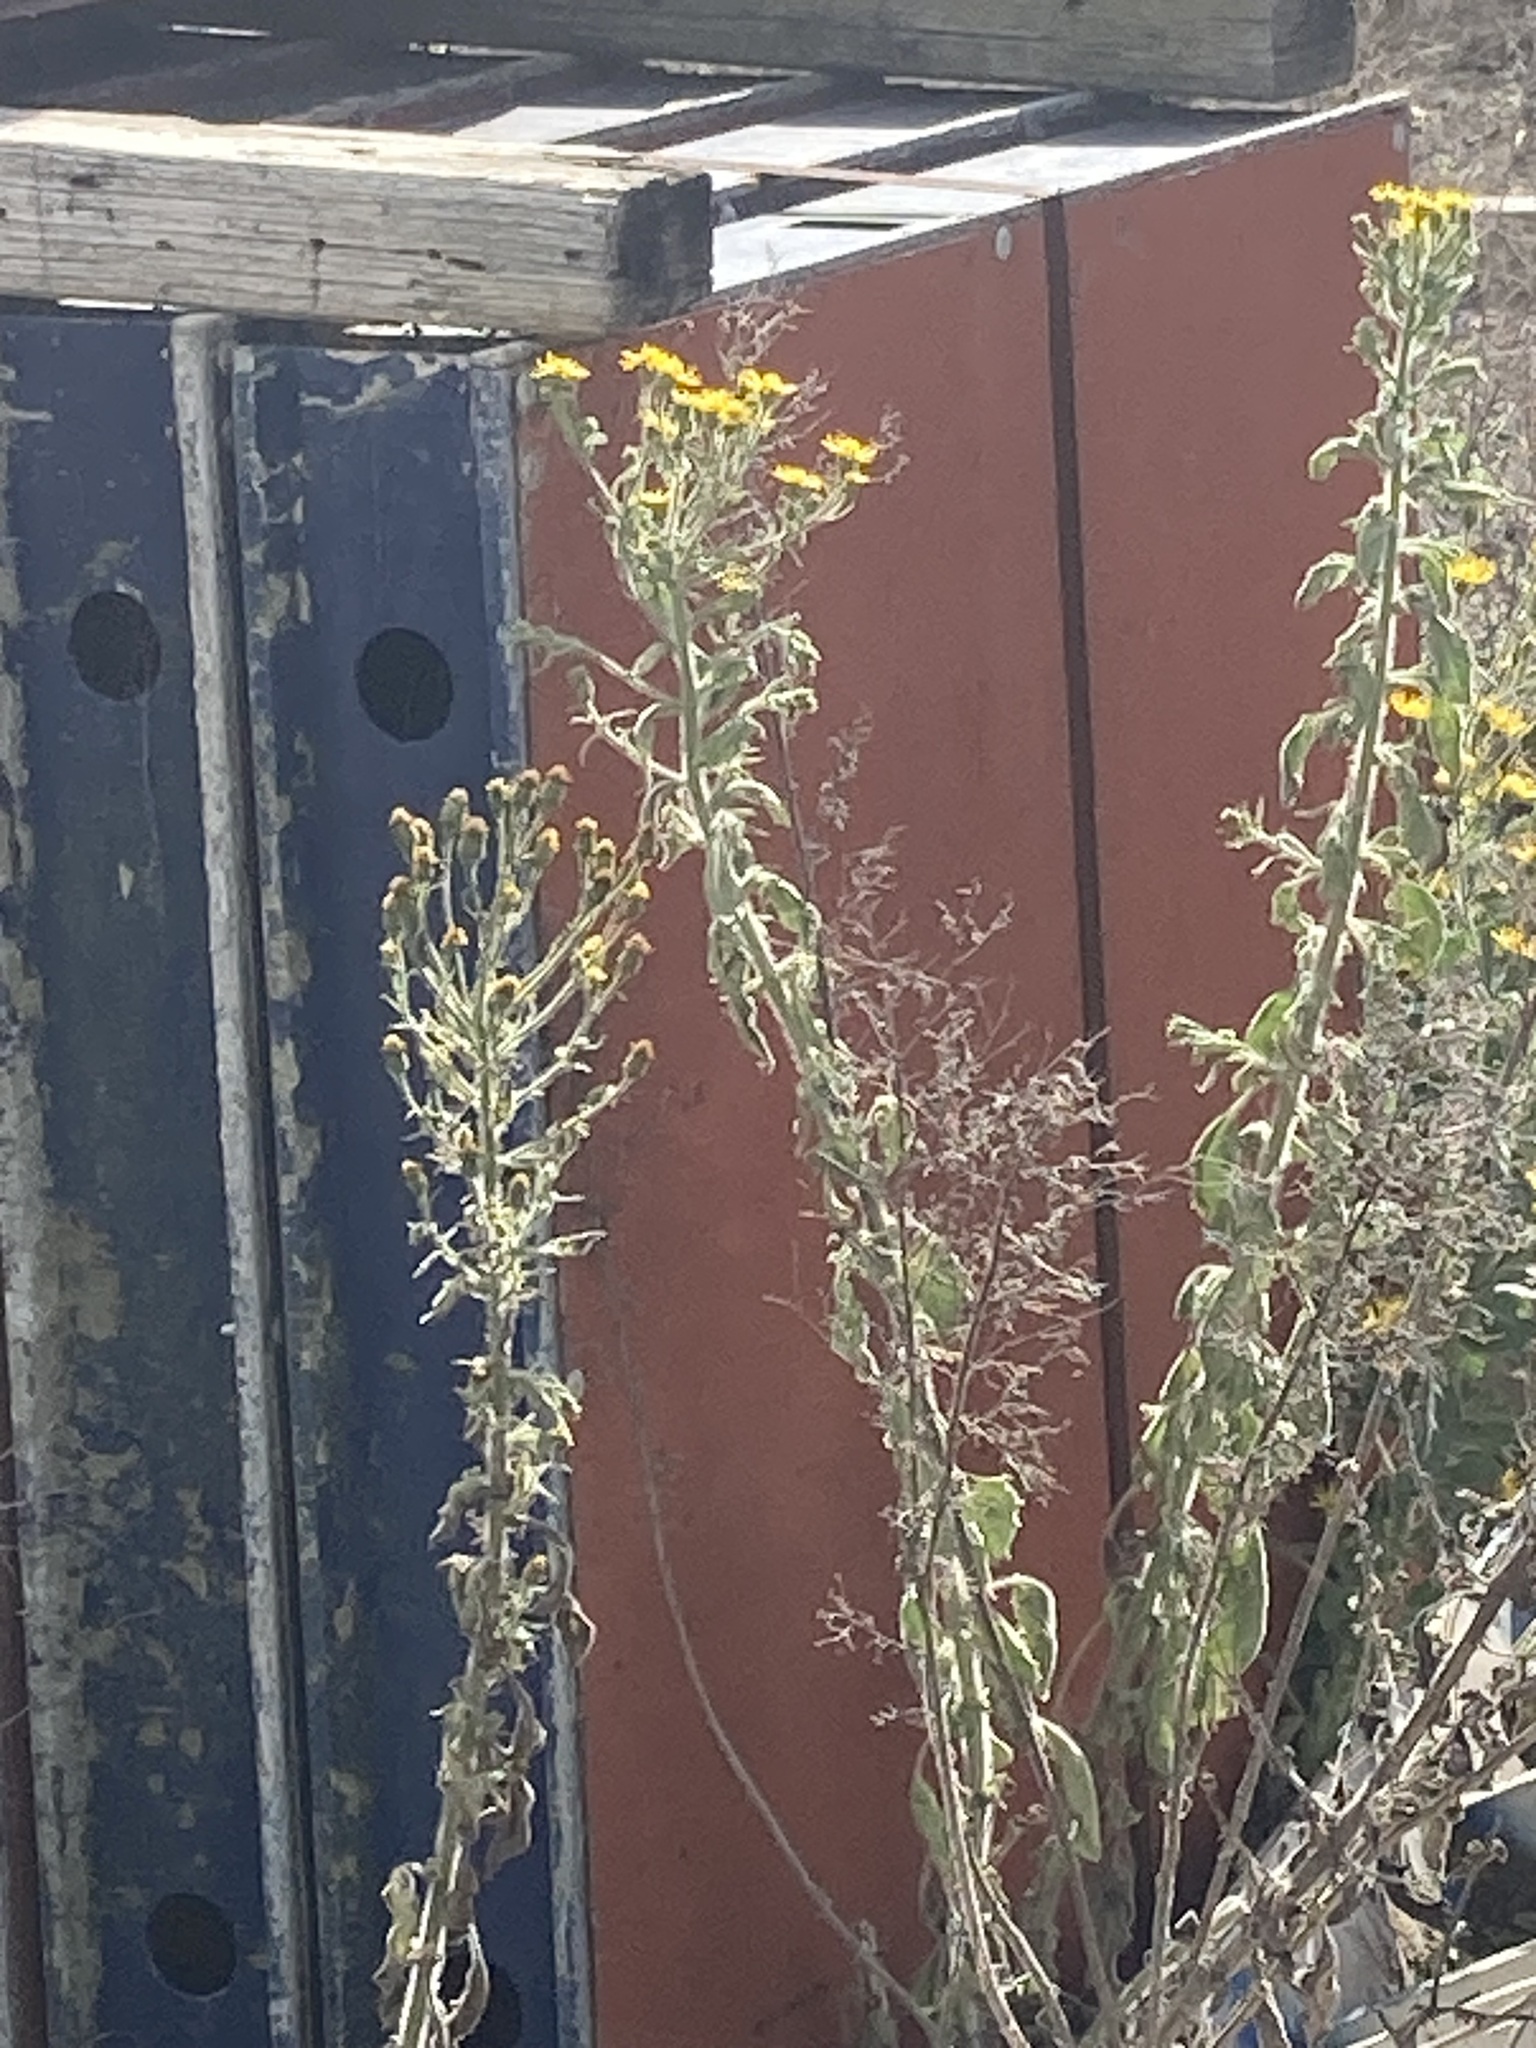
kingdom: Plantae
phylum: Tracheophyta
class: Magnoliopsida
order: Asterales
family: Asteraceae
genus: Heterotheca
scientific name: Heterotheca grandiflora
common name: Telegraphweed
